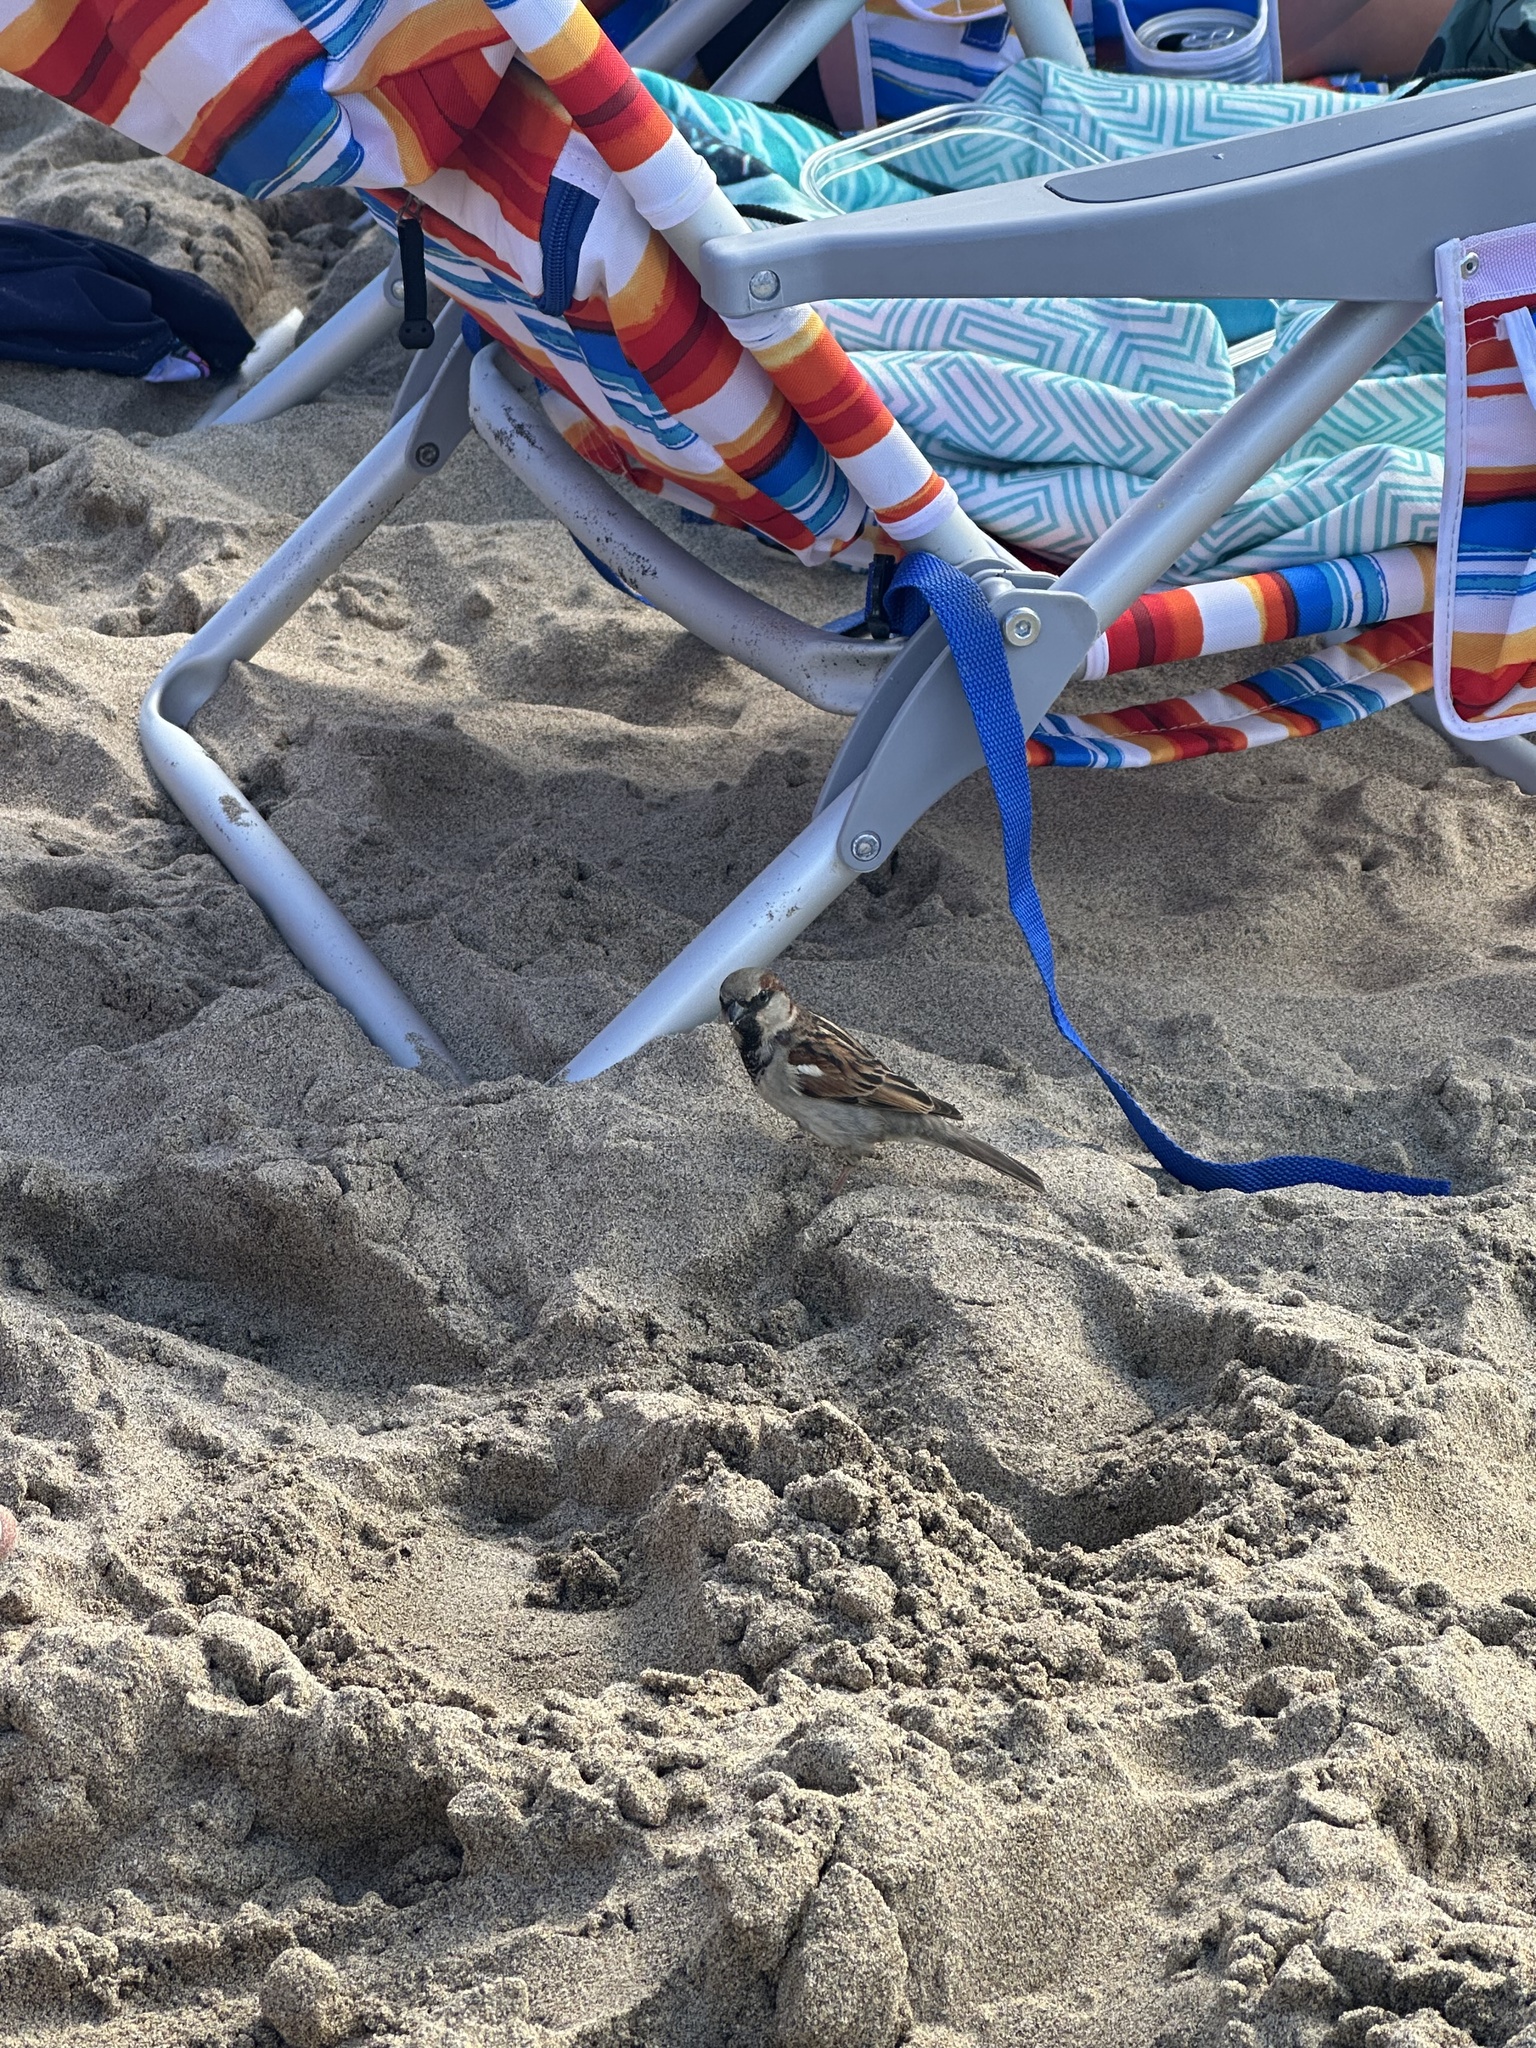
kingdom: Animalia
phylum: Chordata
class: Aves
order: Passeriformes
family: Passeridae
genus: Passer
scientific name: Passer domesticus
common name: House sparrow
